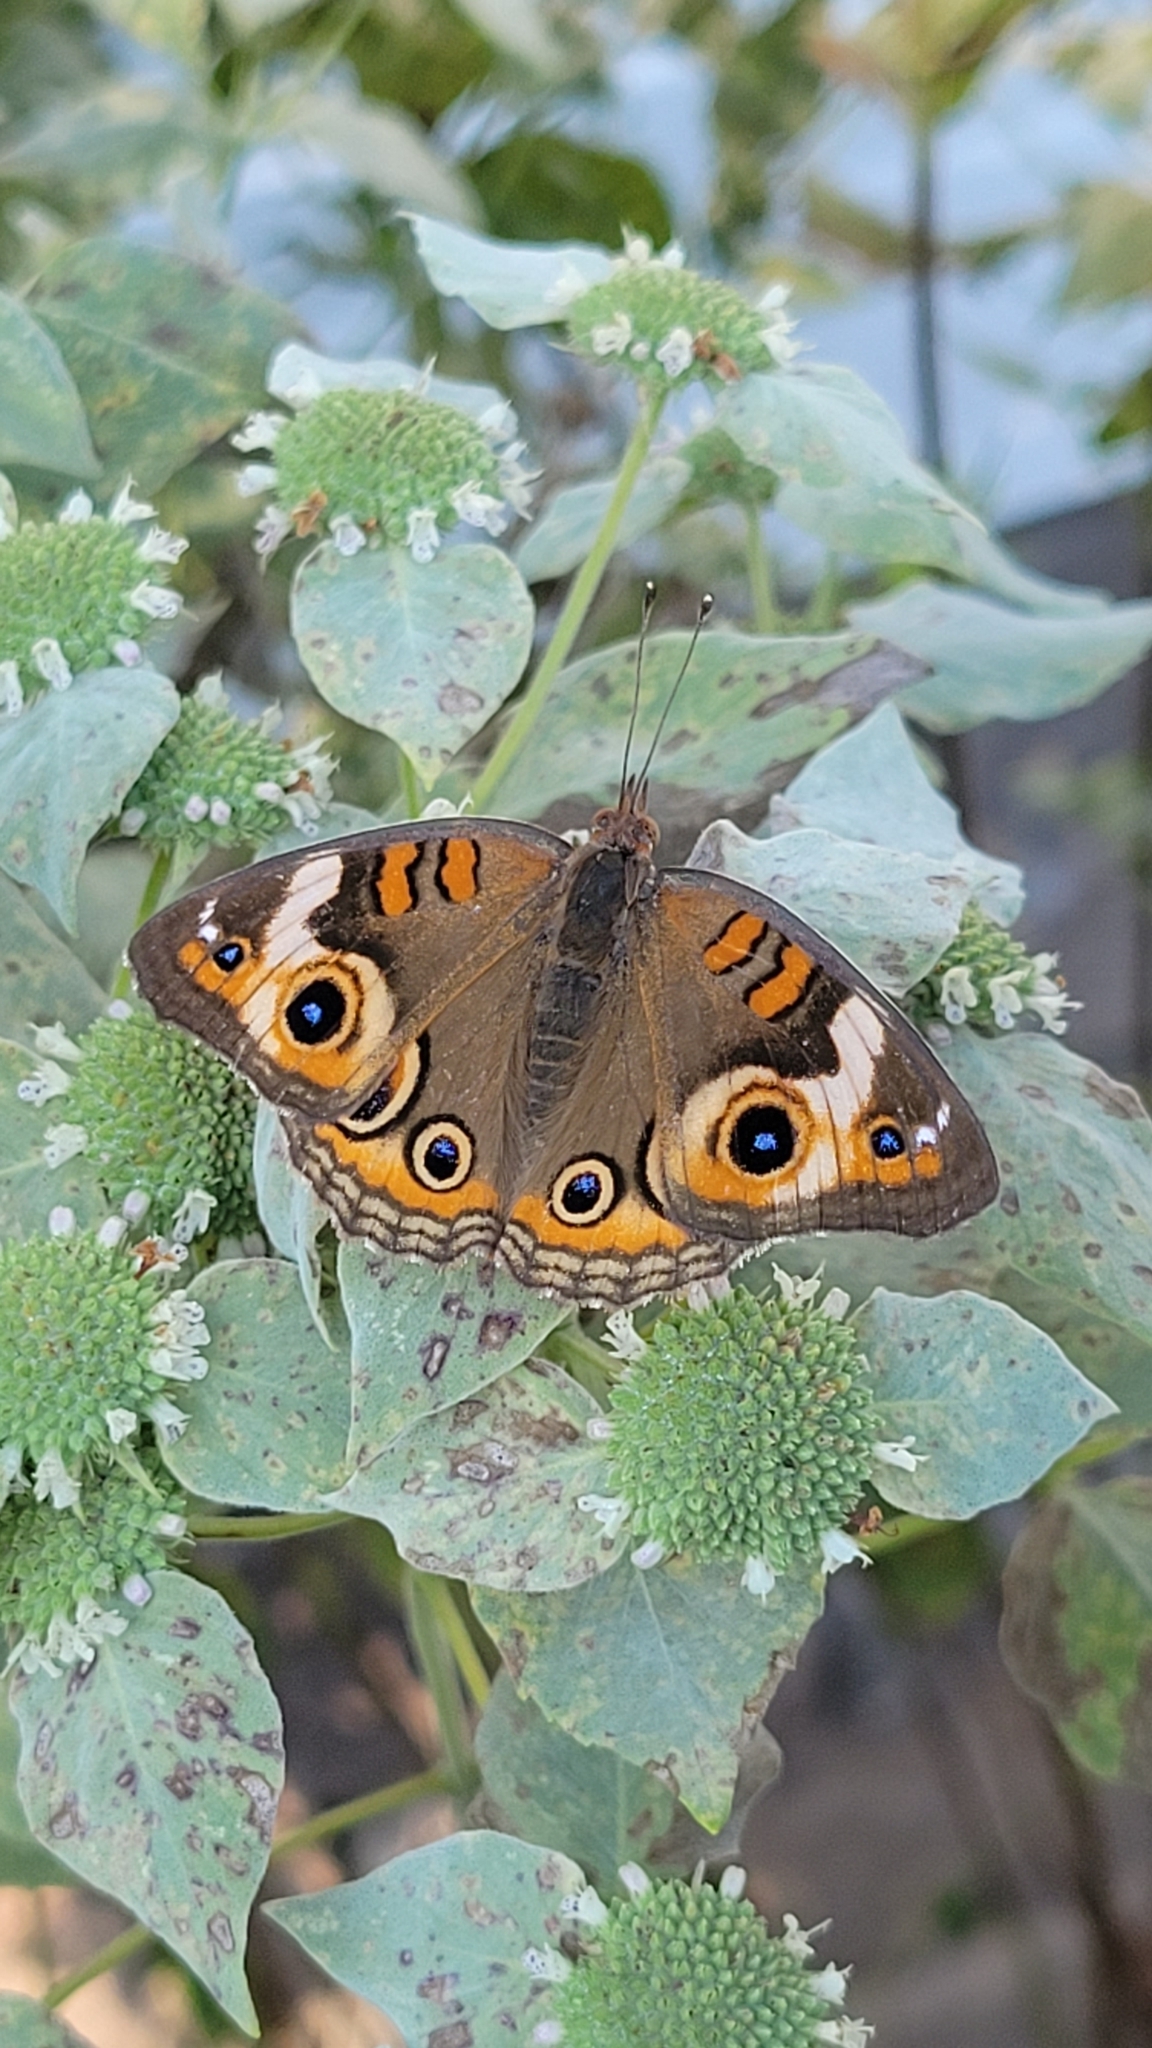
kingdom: Animalia
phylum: Arthropoda
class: Insecta
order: Lepidoptera
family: Nymphalidae
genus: Junonia
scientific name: Junonia coenia
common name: Common buckeye
